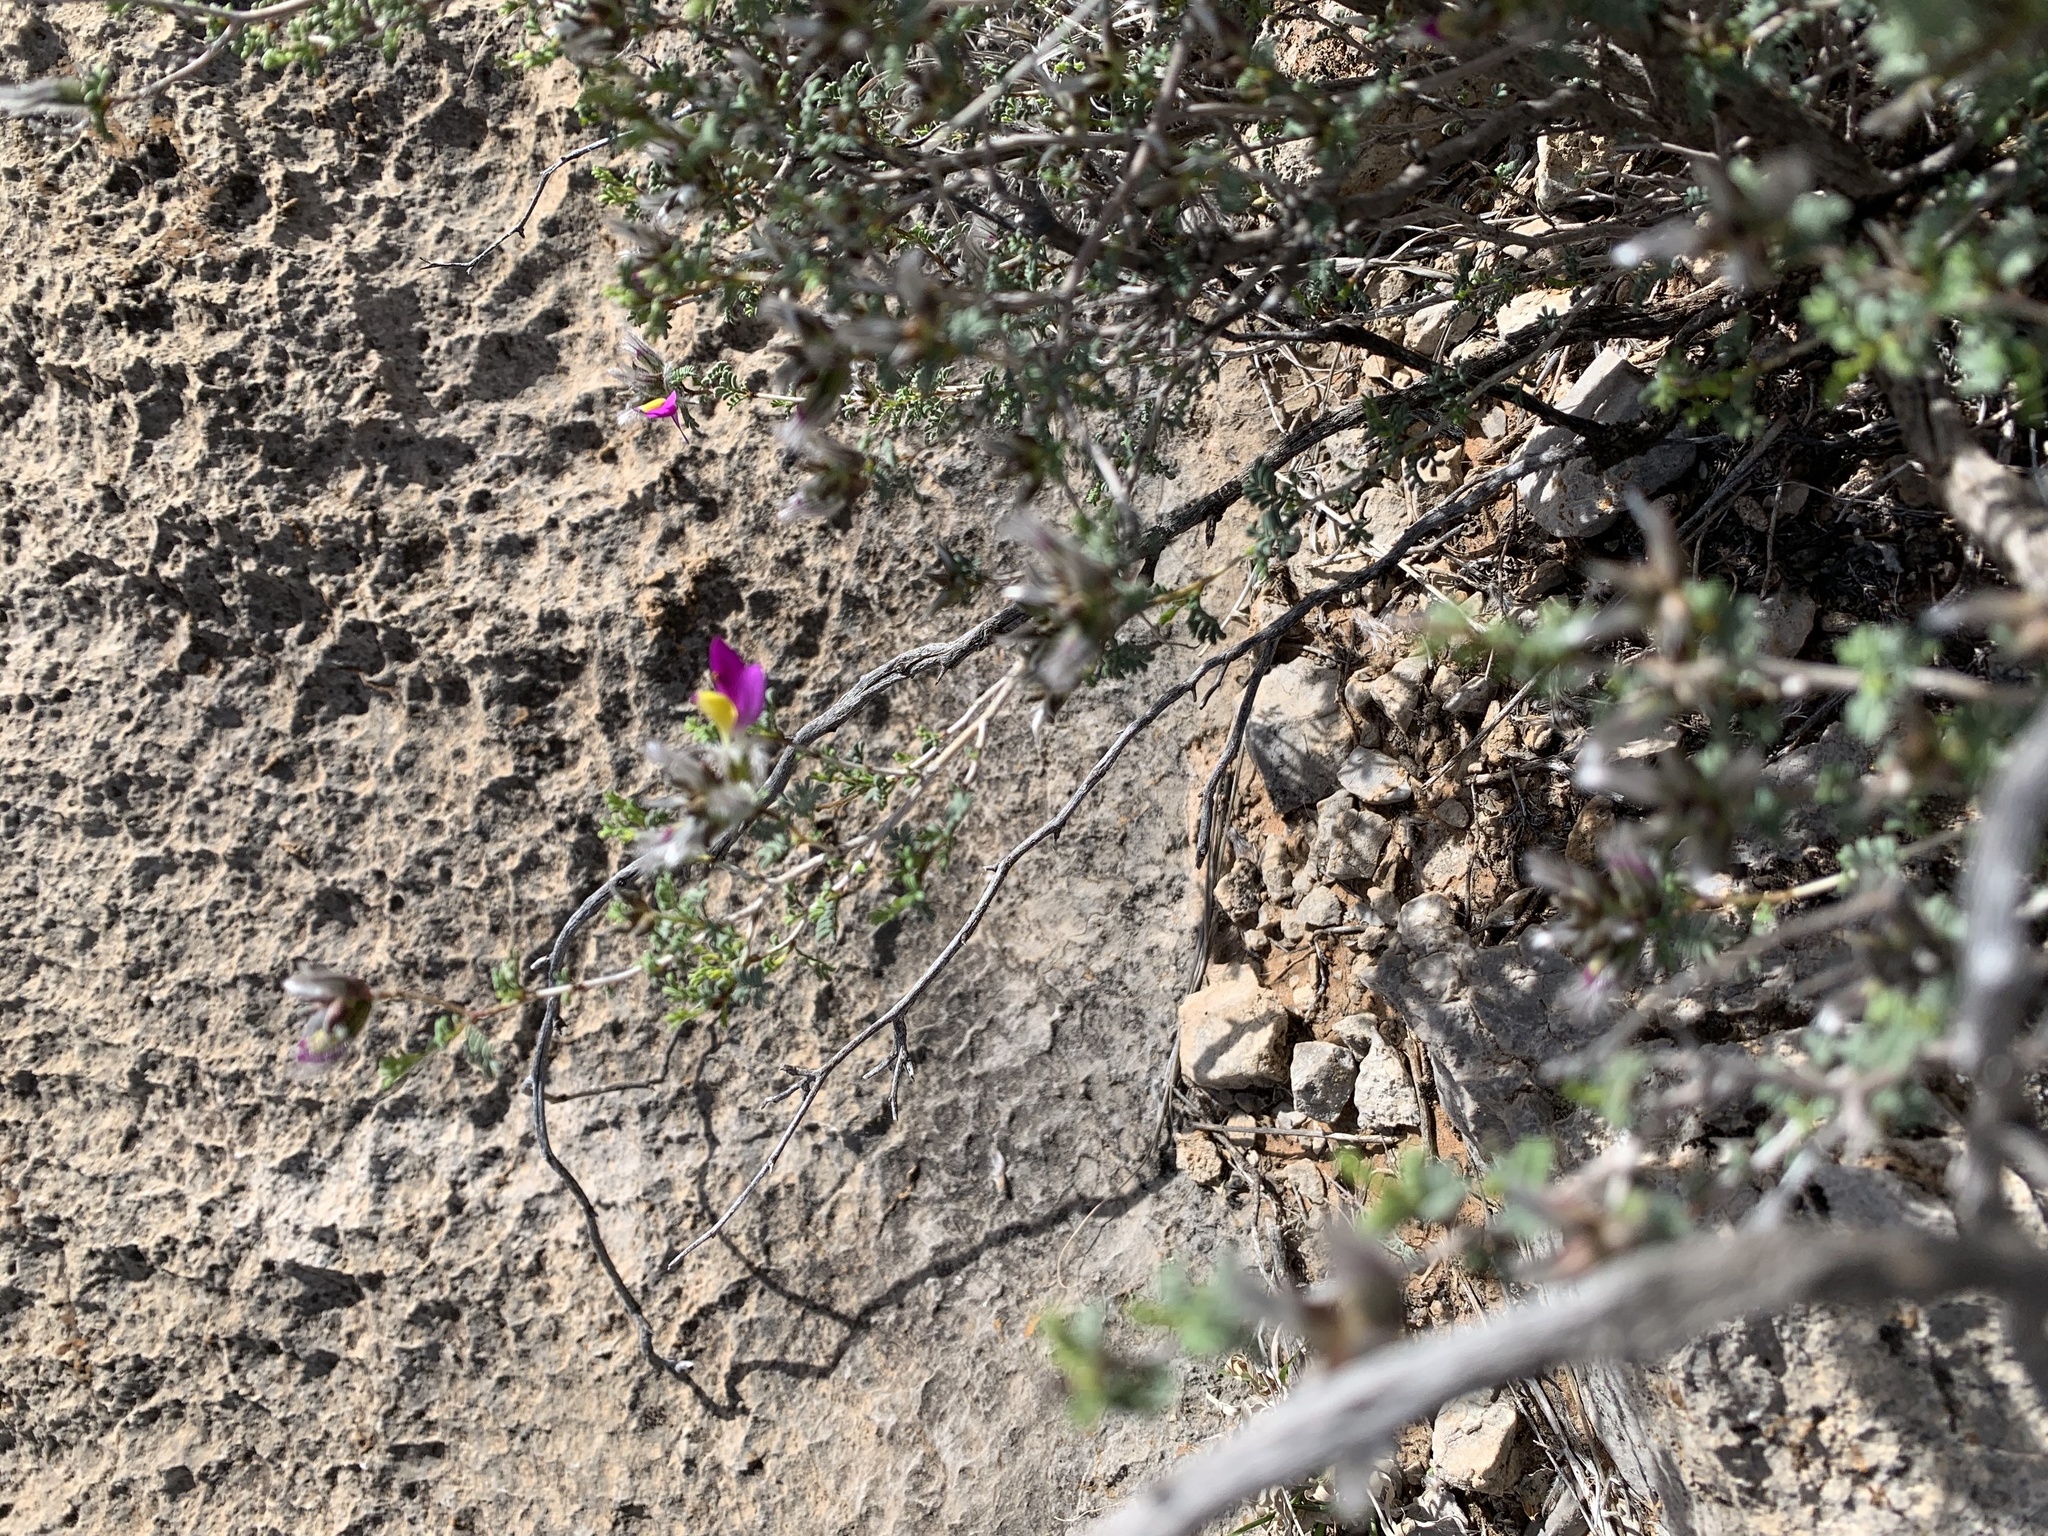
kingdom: Plantae
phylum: Tracheophyta
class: Magnoliopsida
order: Fabales
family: Fabaceae
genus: Dalea
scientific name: Dalea formosa
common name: Feather-plume dalea
